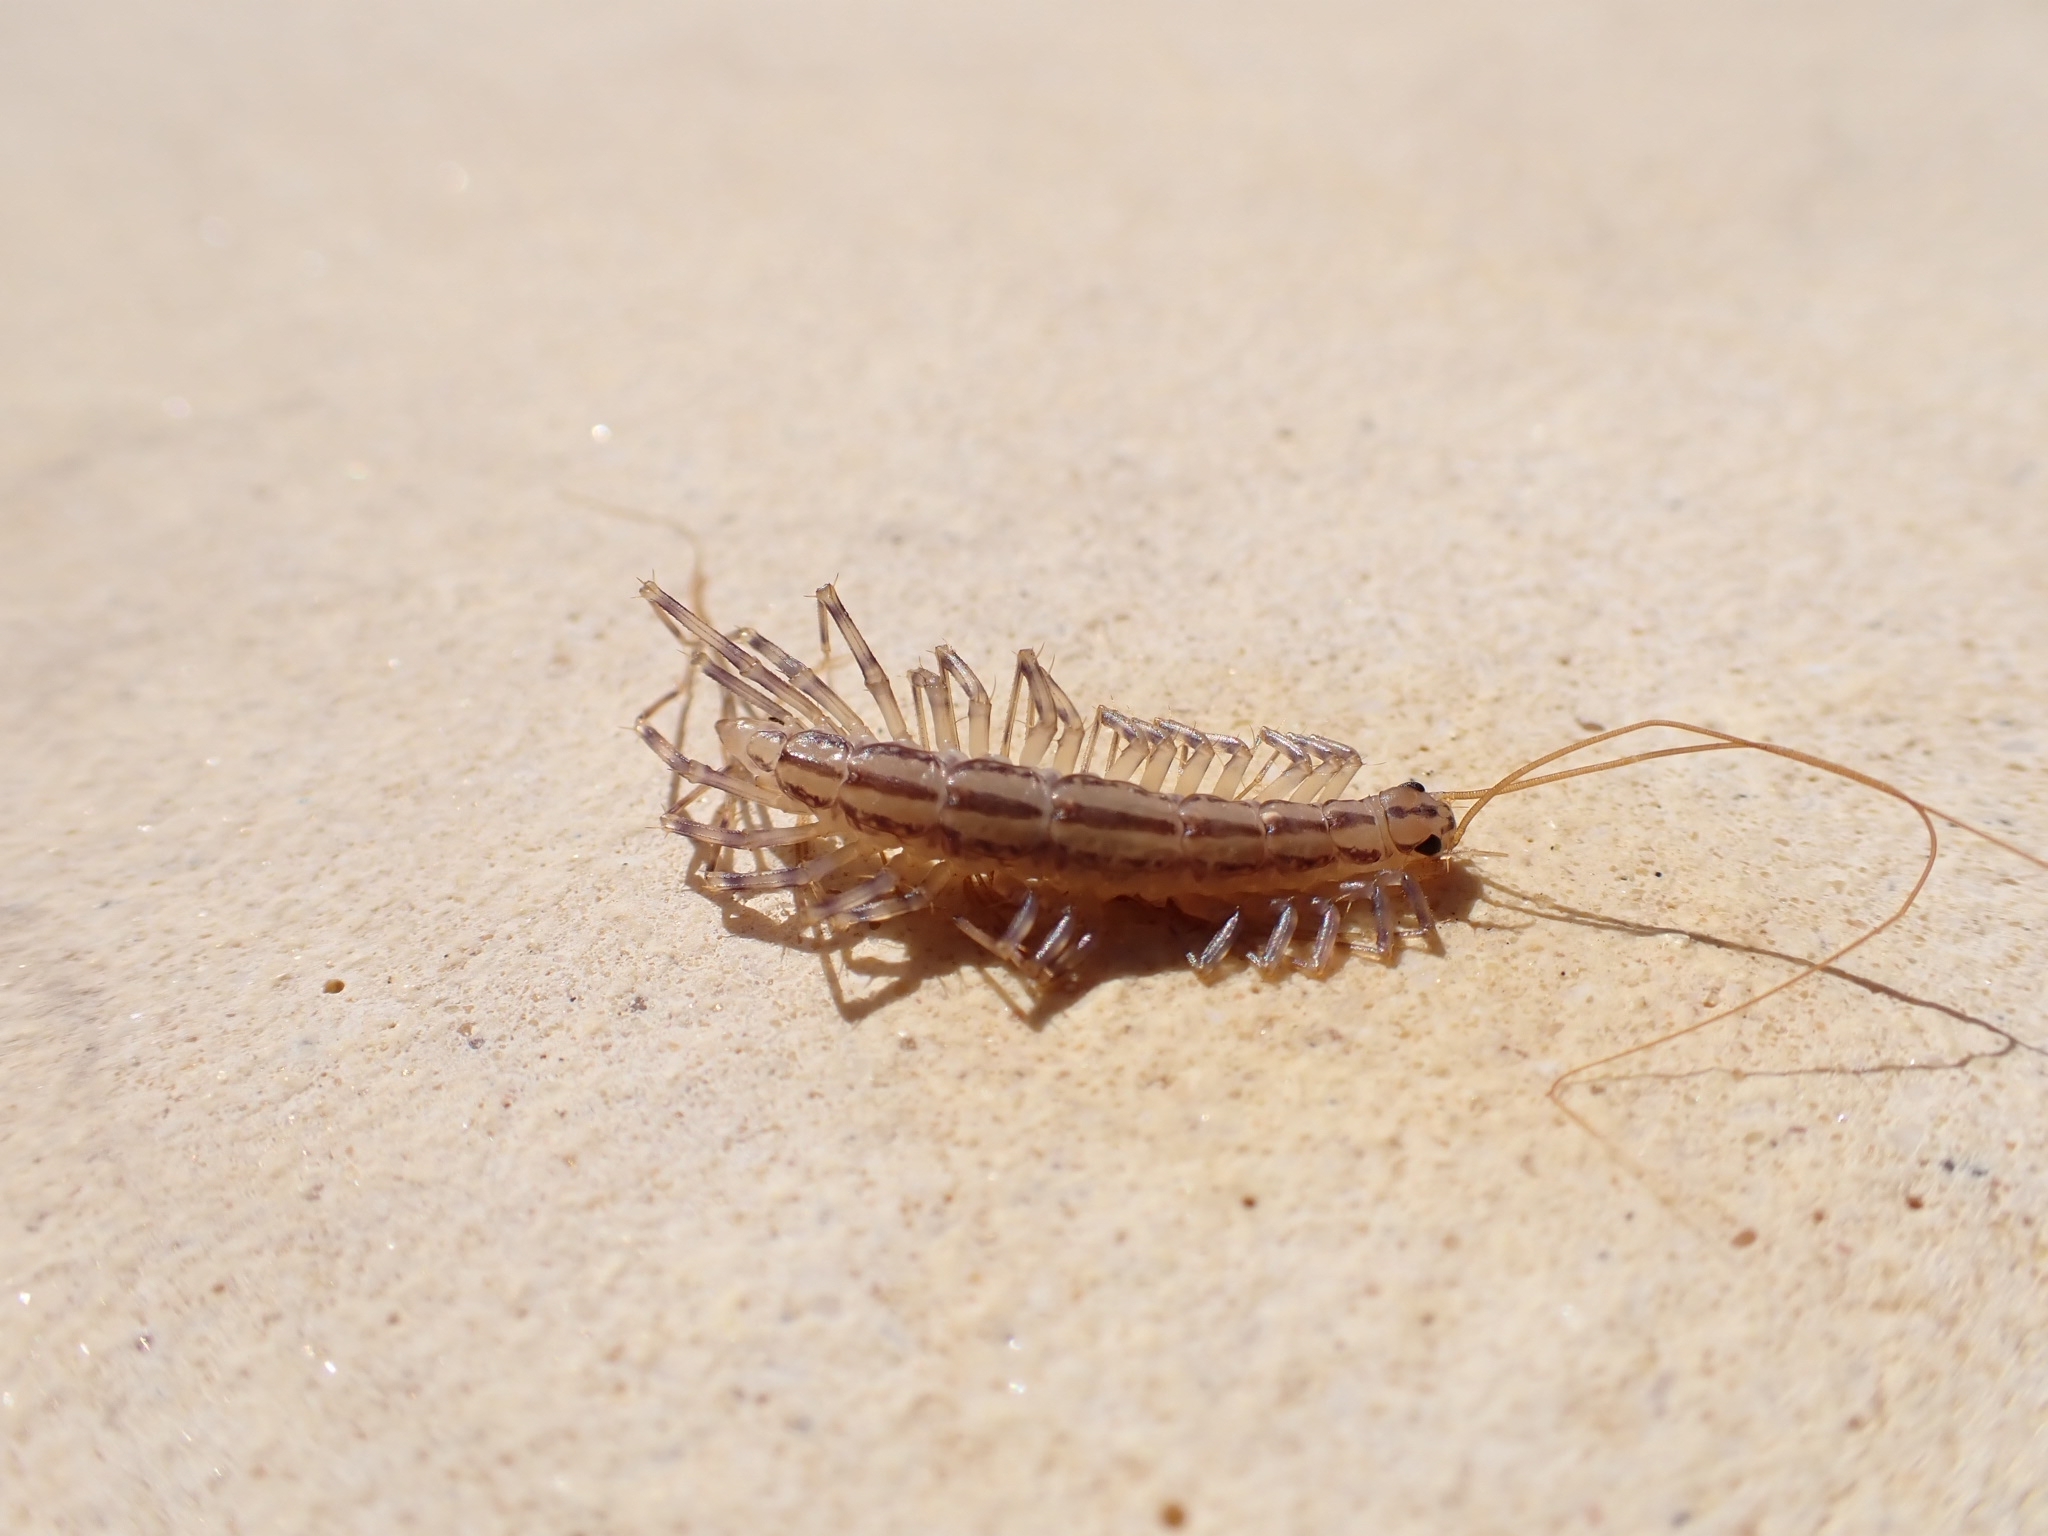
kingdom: Animalia
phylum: Arthropoda
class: Chilopoda
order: Scutigeromorpha
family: Scutigeridae
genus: Scutigera
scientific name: Scutigera coleoptrata
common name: House centipede
